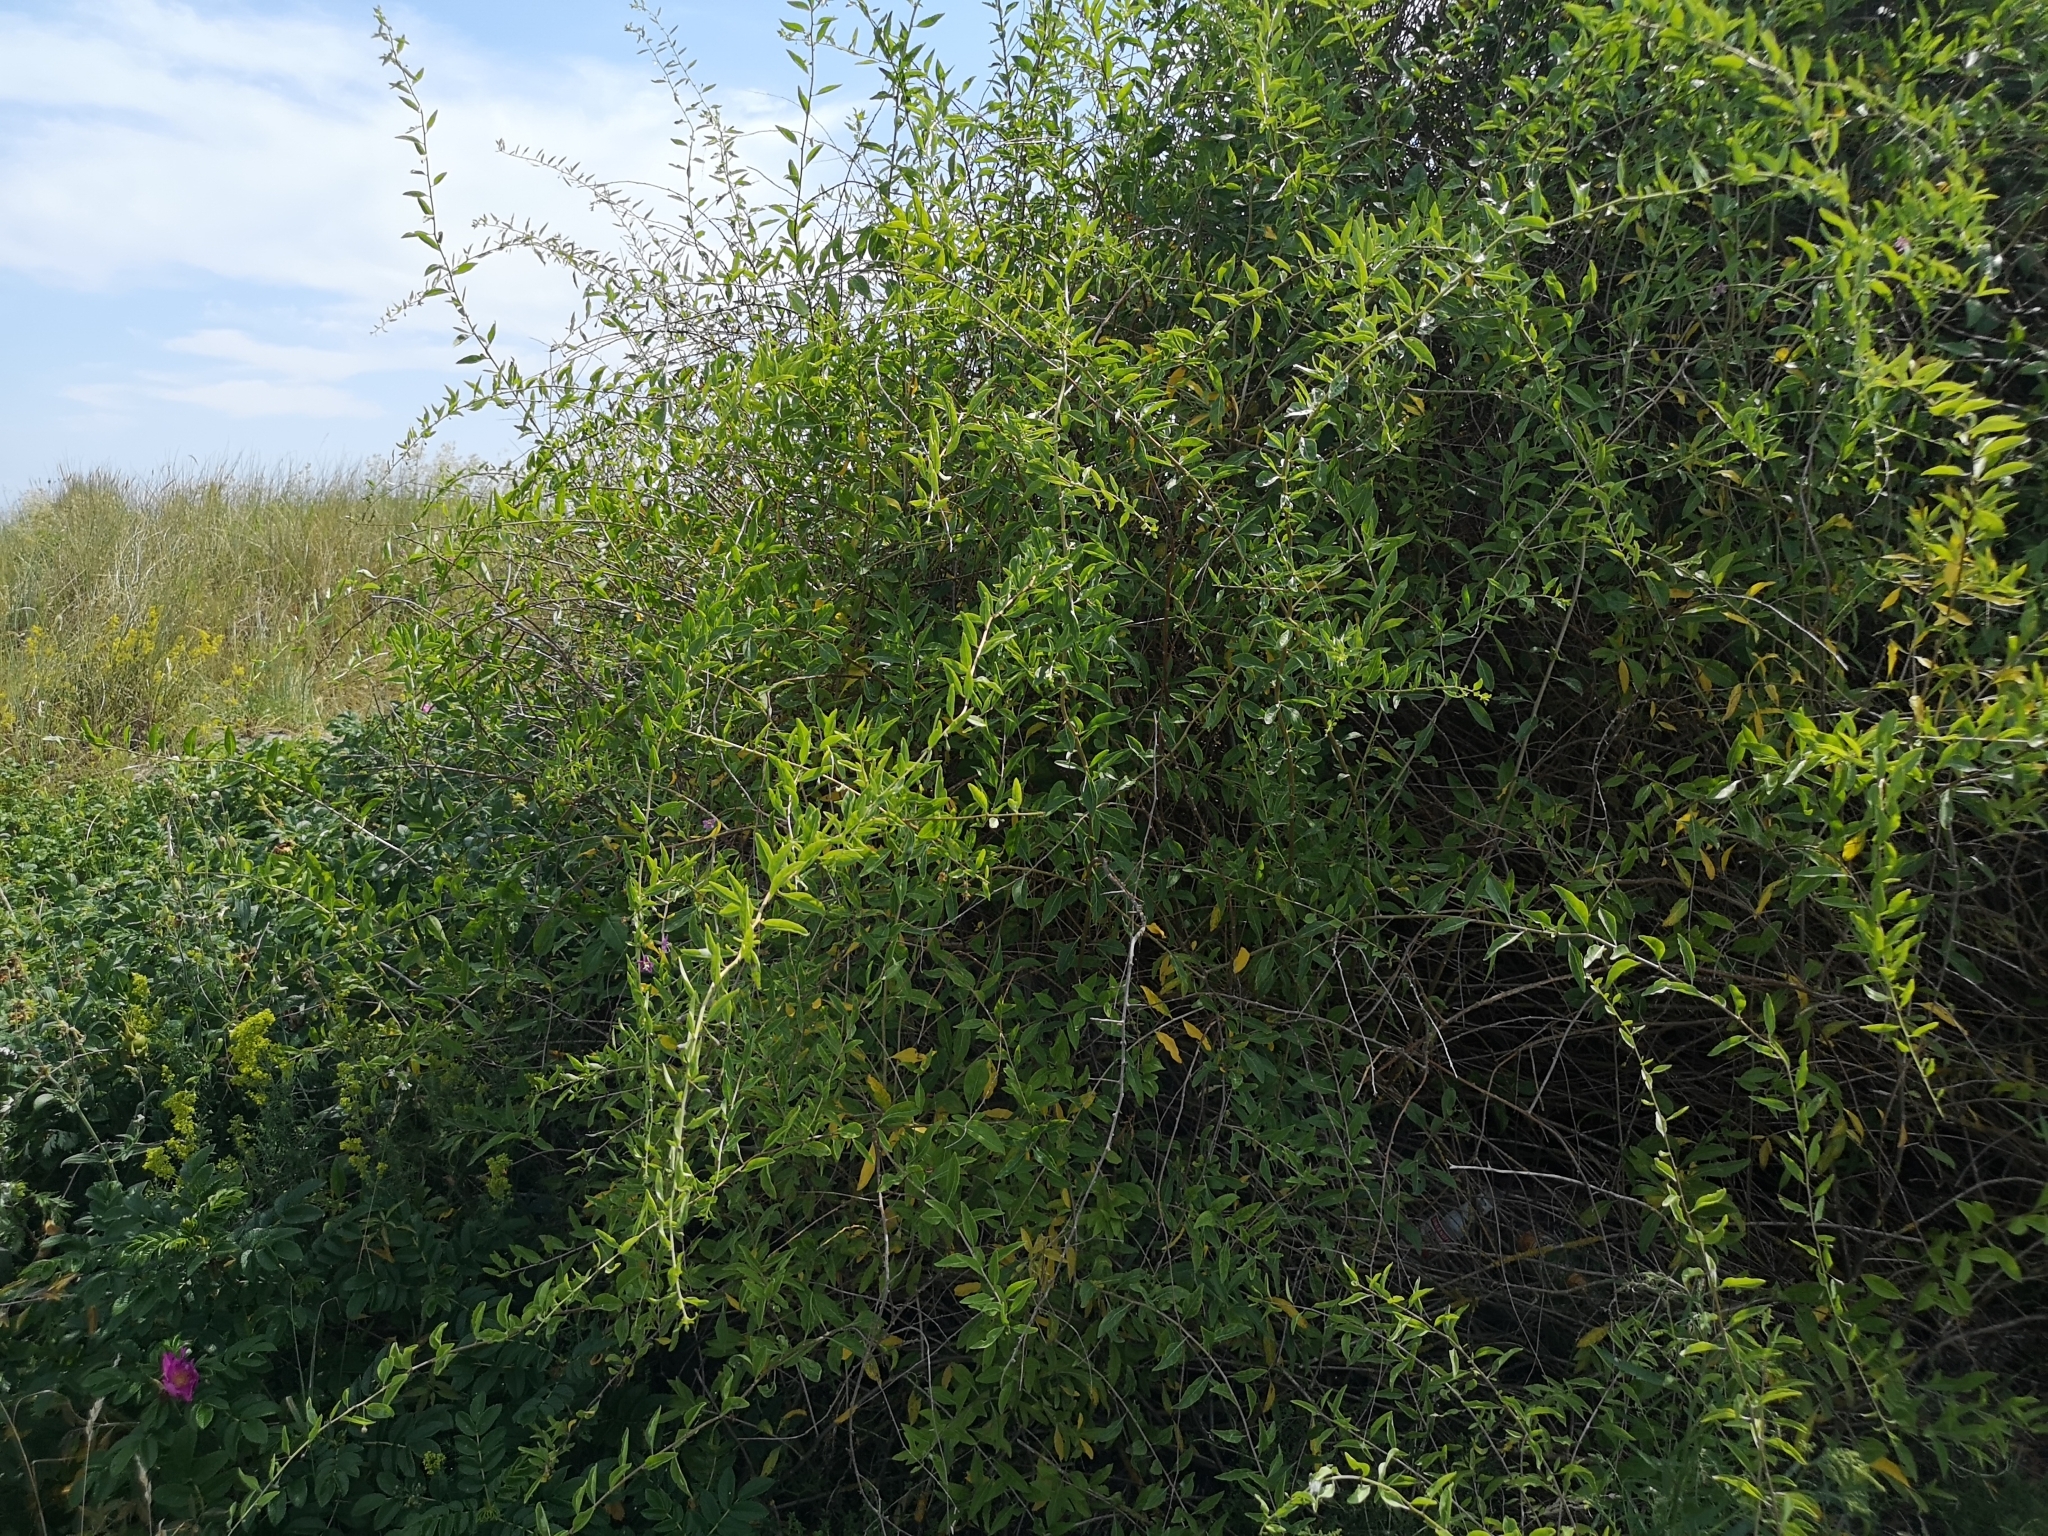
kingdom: Plantae
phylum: Tracheophyta
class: Magnoliopsida
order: Solanales
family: Solanaceae
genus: Lycium
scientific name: Lycium barbarum
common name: Duke of argyll's teaplant
